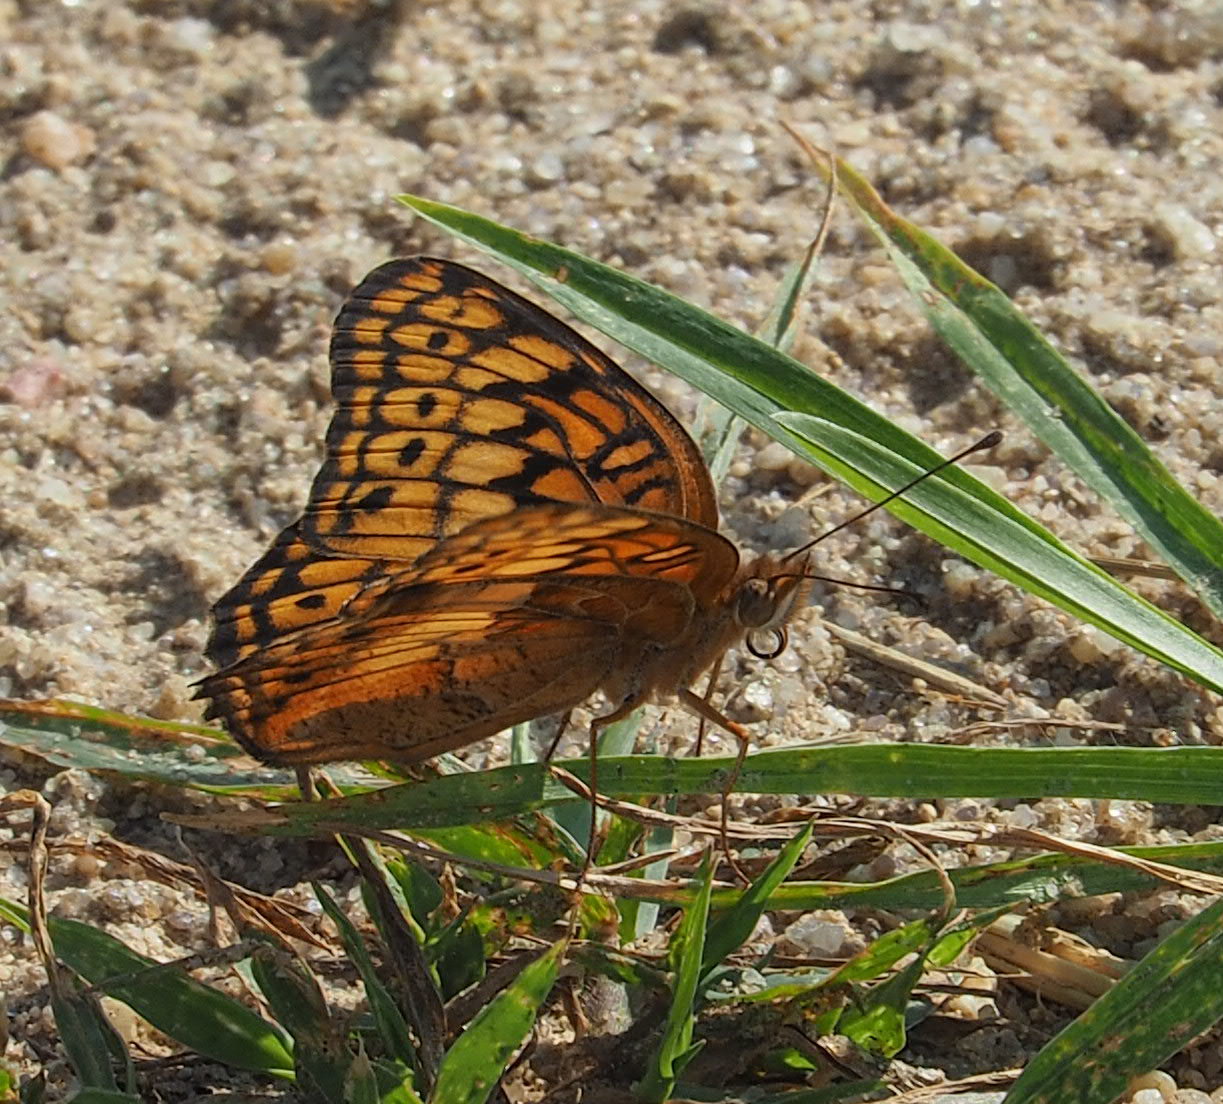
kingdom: Animalia
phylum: Arthropoda
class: Insecta
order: Lepidoptera
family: Nymphalidae
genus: Euptoieta
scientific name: Euptoieta claudia
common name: Variegated fritillary
